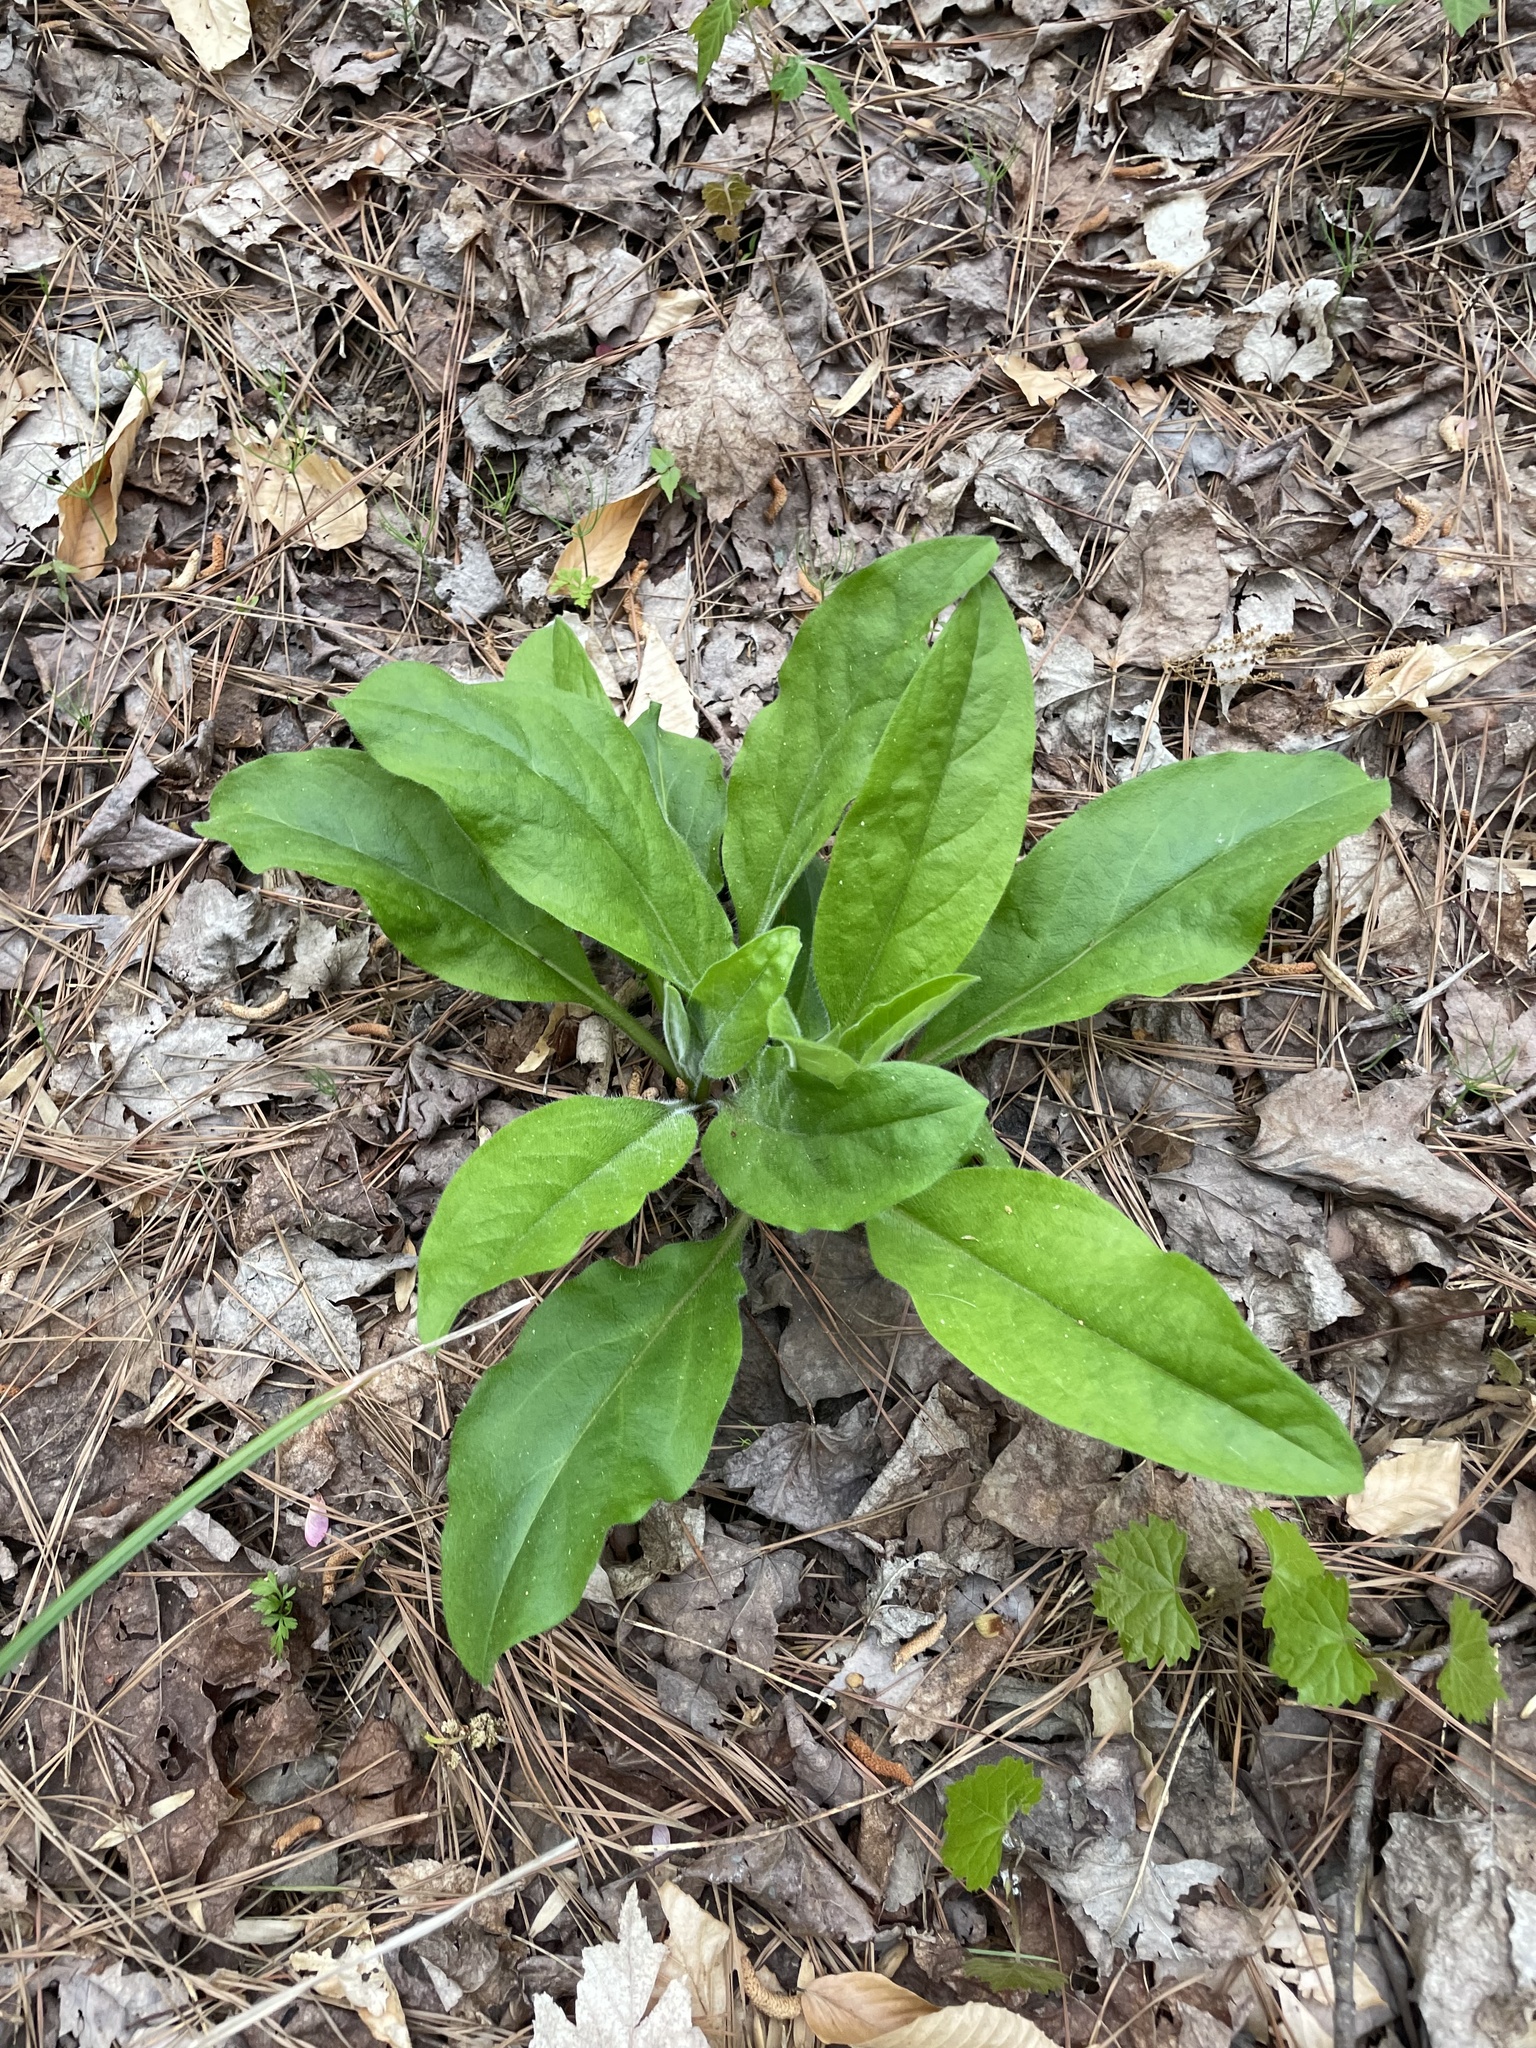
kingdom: Plantae
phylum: Tracheophyta
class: Magnoliopsida
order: Boraginales
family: Boraginaceae
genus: Andersonglossum
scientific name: Andersonglossum virginianum
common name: Wild comfrey
